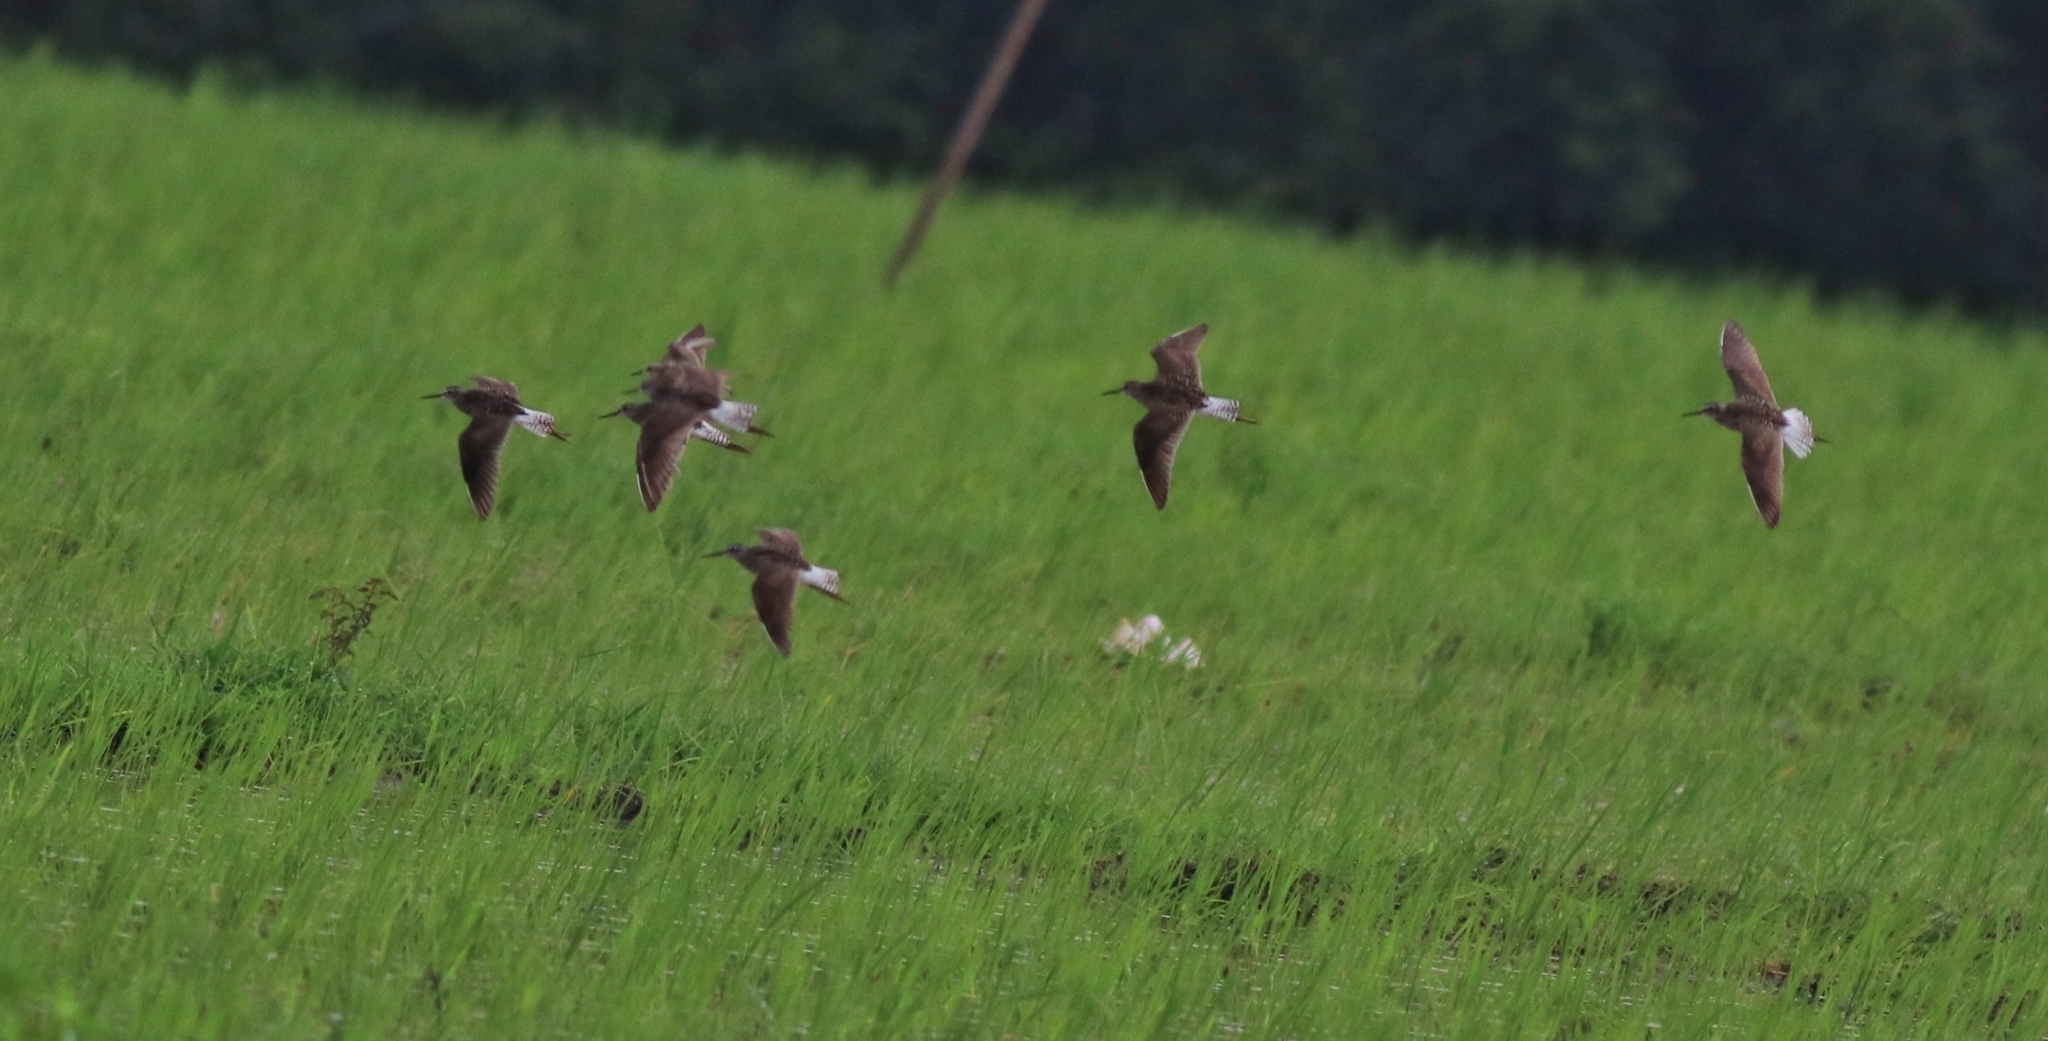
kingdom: Animalia
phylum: Chordata
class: Aves
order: Charadriiformes
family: Scolopacidae
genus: Tringa
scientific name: Tringa glareola
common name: Wood sandpiper
